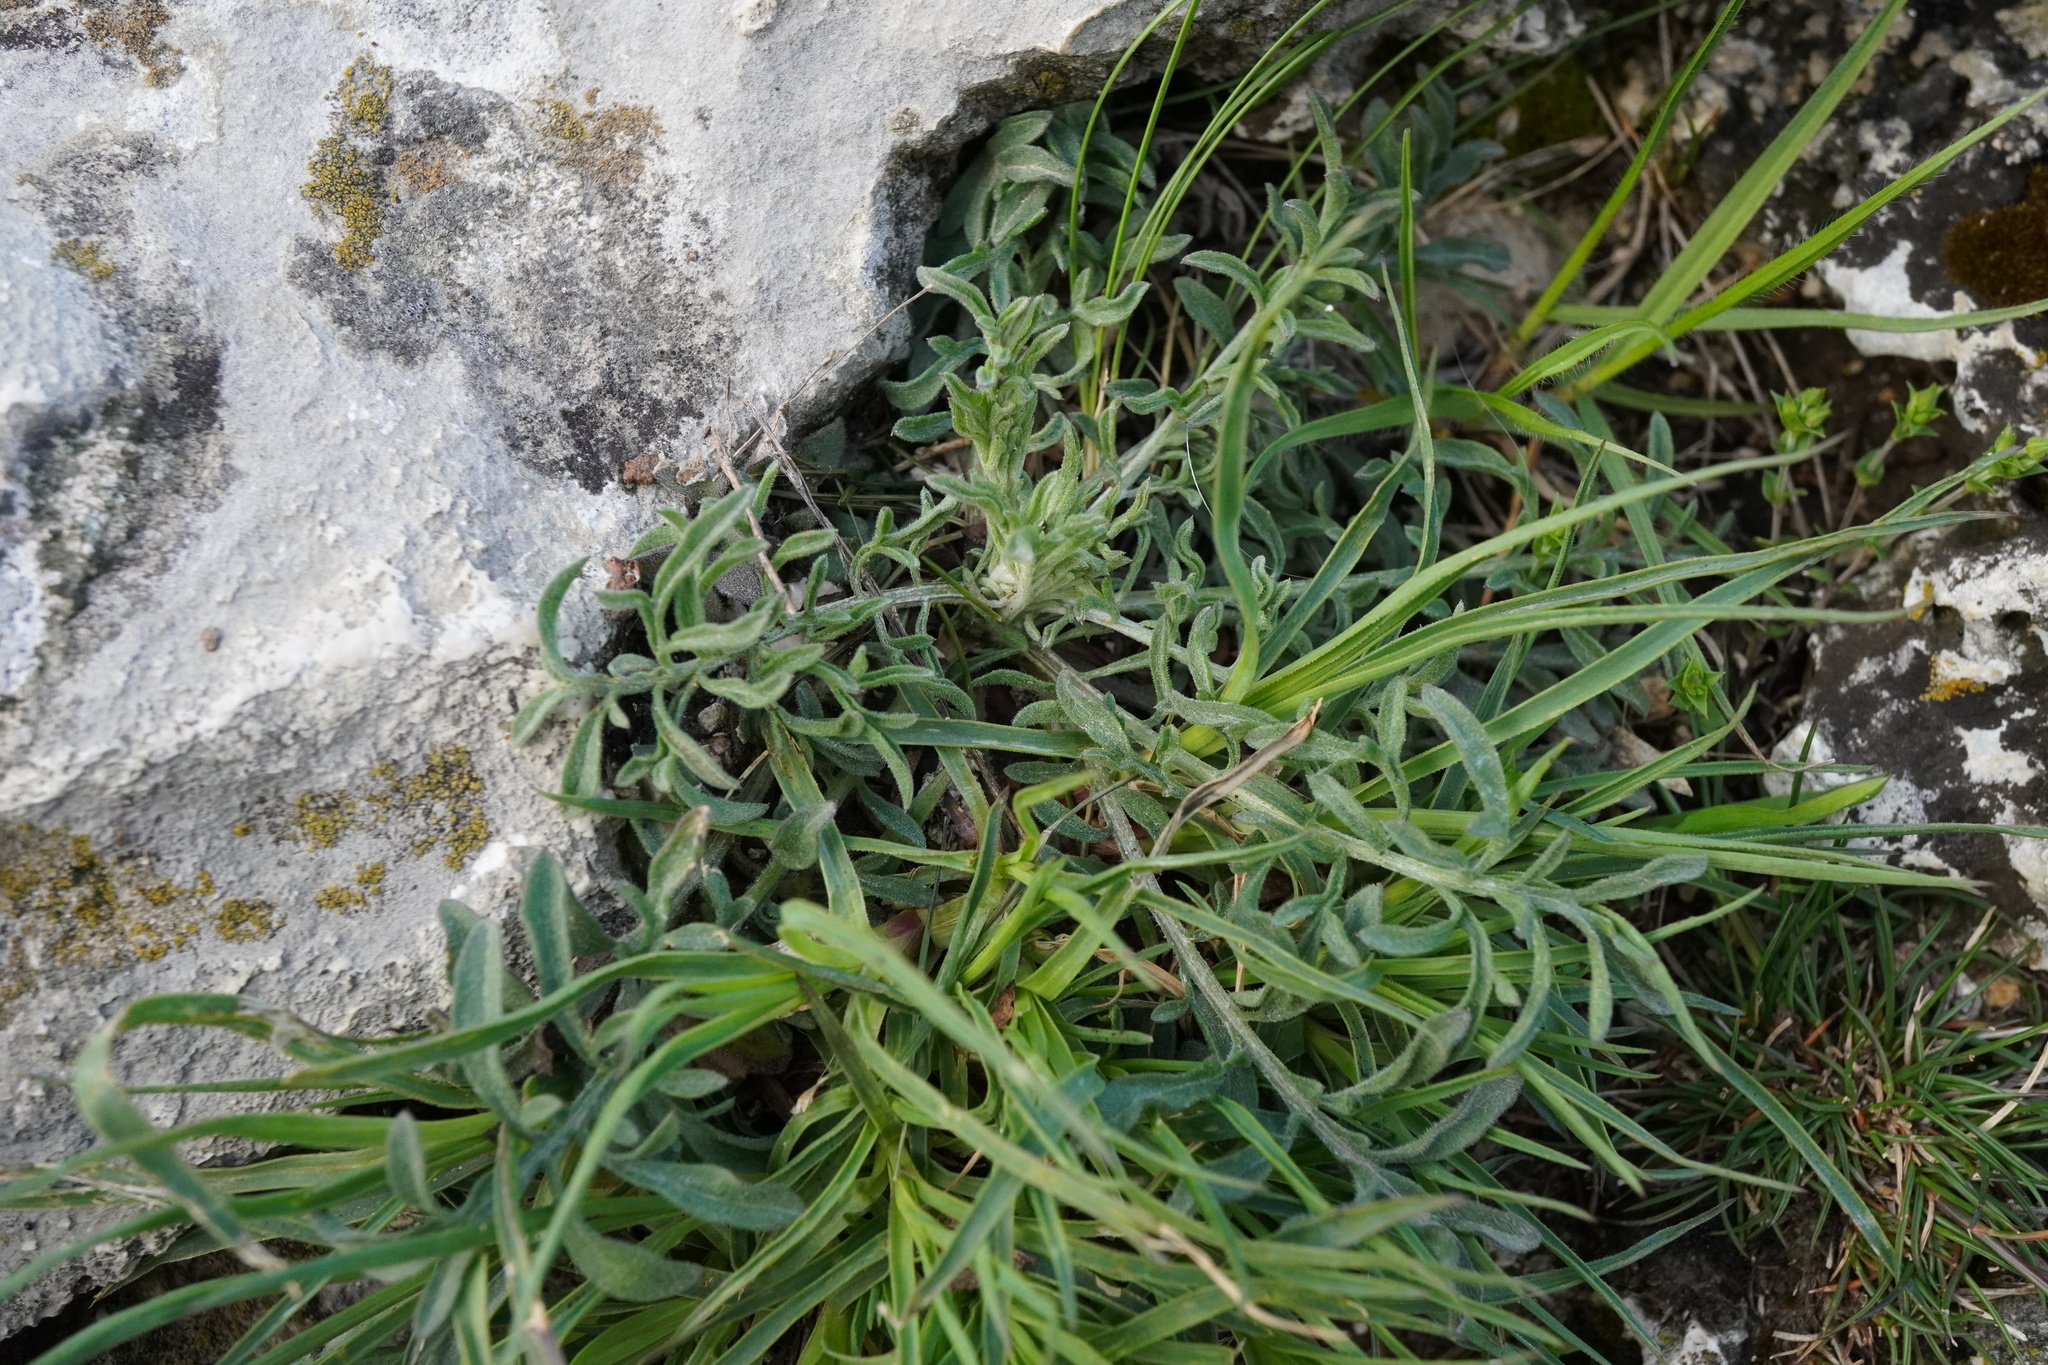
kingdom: Plantae
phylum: Tracheophyta
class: Magnoliopsida
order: Asterales
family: Asteraceae
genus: Centaurea
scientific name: Centaurea stoebe
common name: Spotted knapweed
